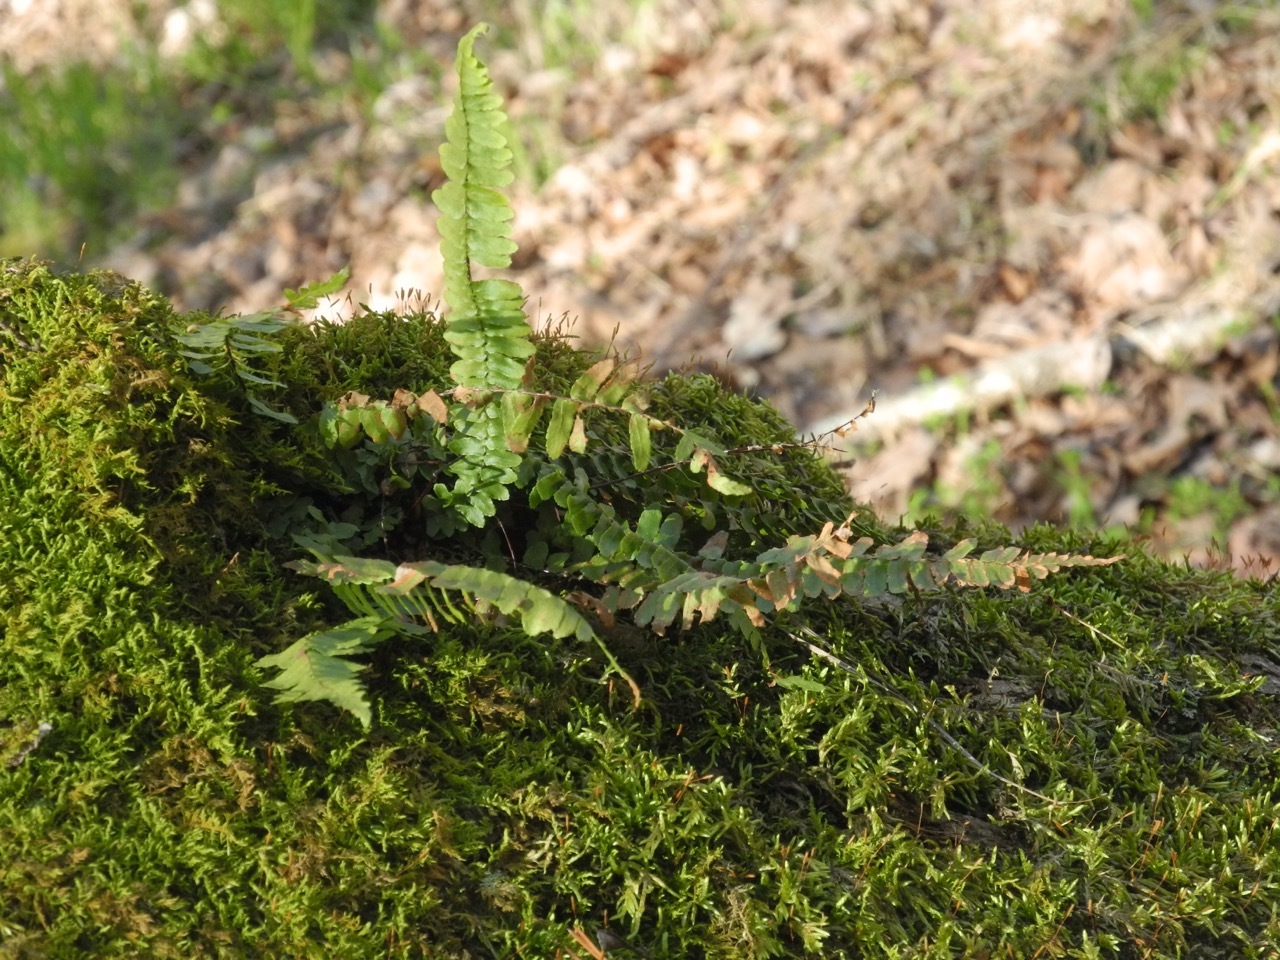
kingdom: Plantae
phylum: Tracheophyta
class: Polypodiopsida
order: Polypodiales
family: Aspleniaceae
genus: Asplenium
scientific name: Asplenium platyneuron
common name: Ebony spleenwort
